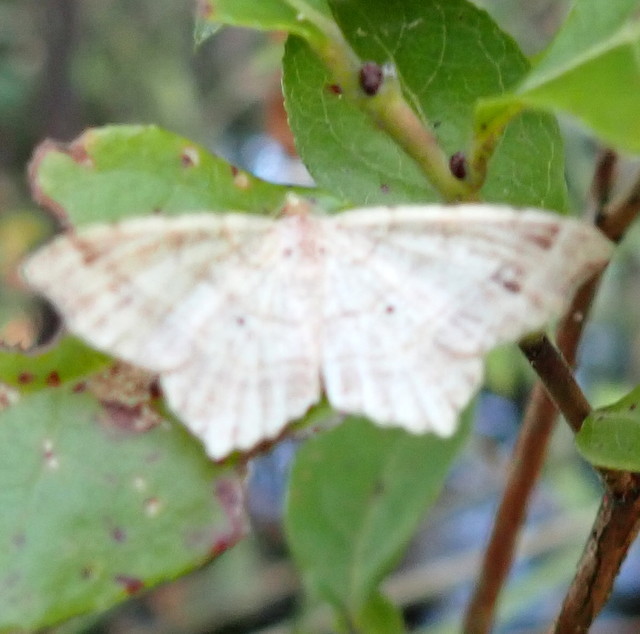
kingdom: Animalia
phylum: Arthropoda
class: Insecta
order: Lepidoptera
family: Geometridae
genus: Macaria
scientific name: Macaria bisignata
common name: Red-headed inchworm
